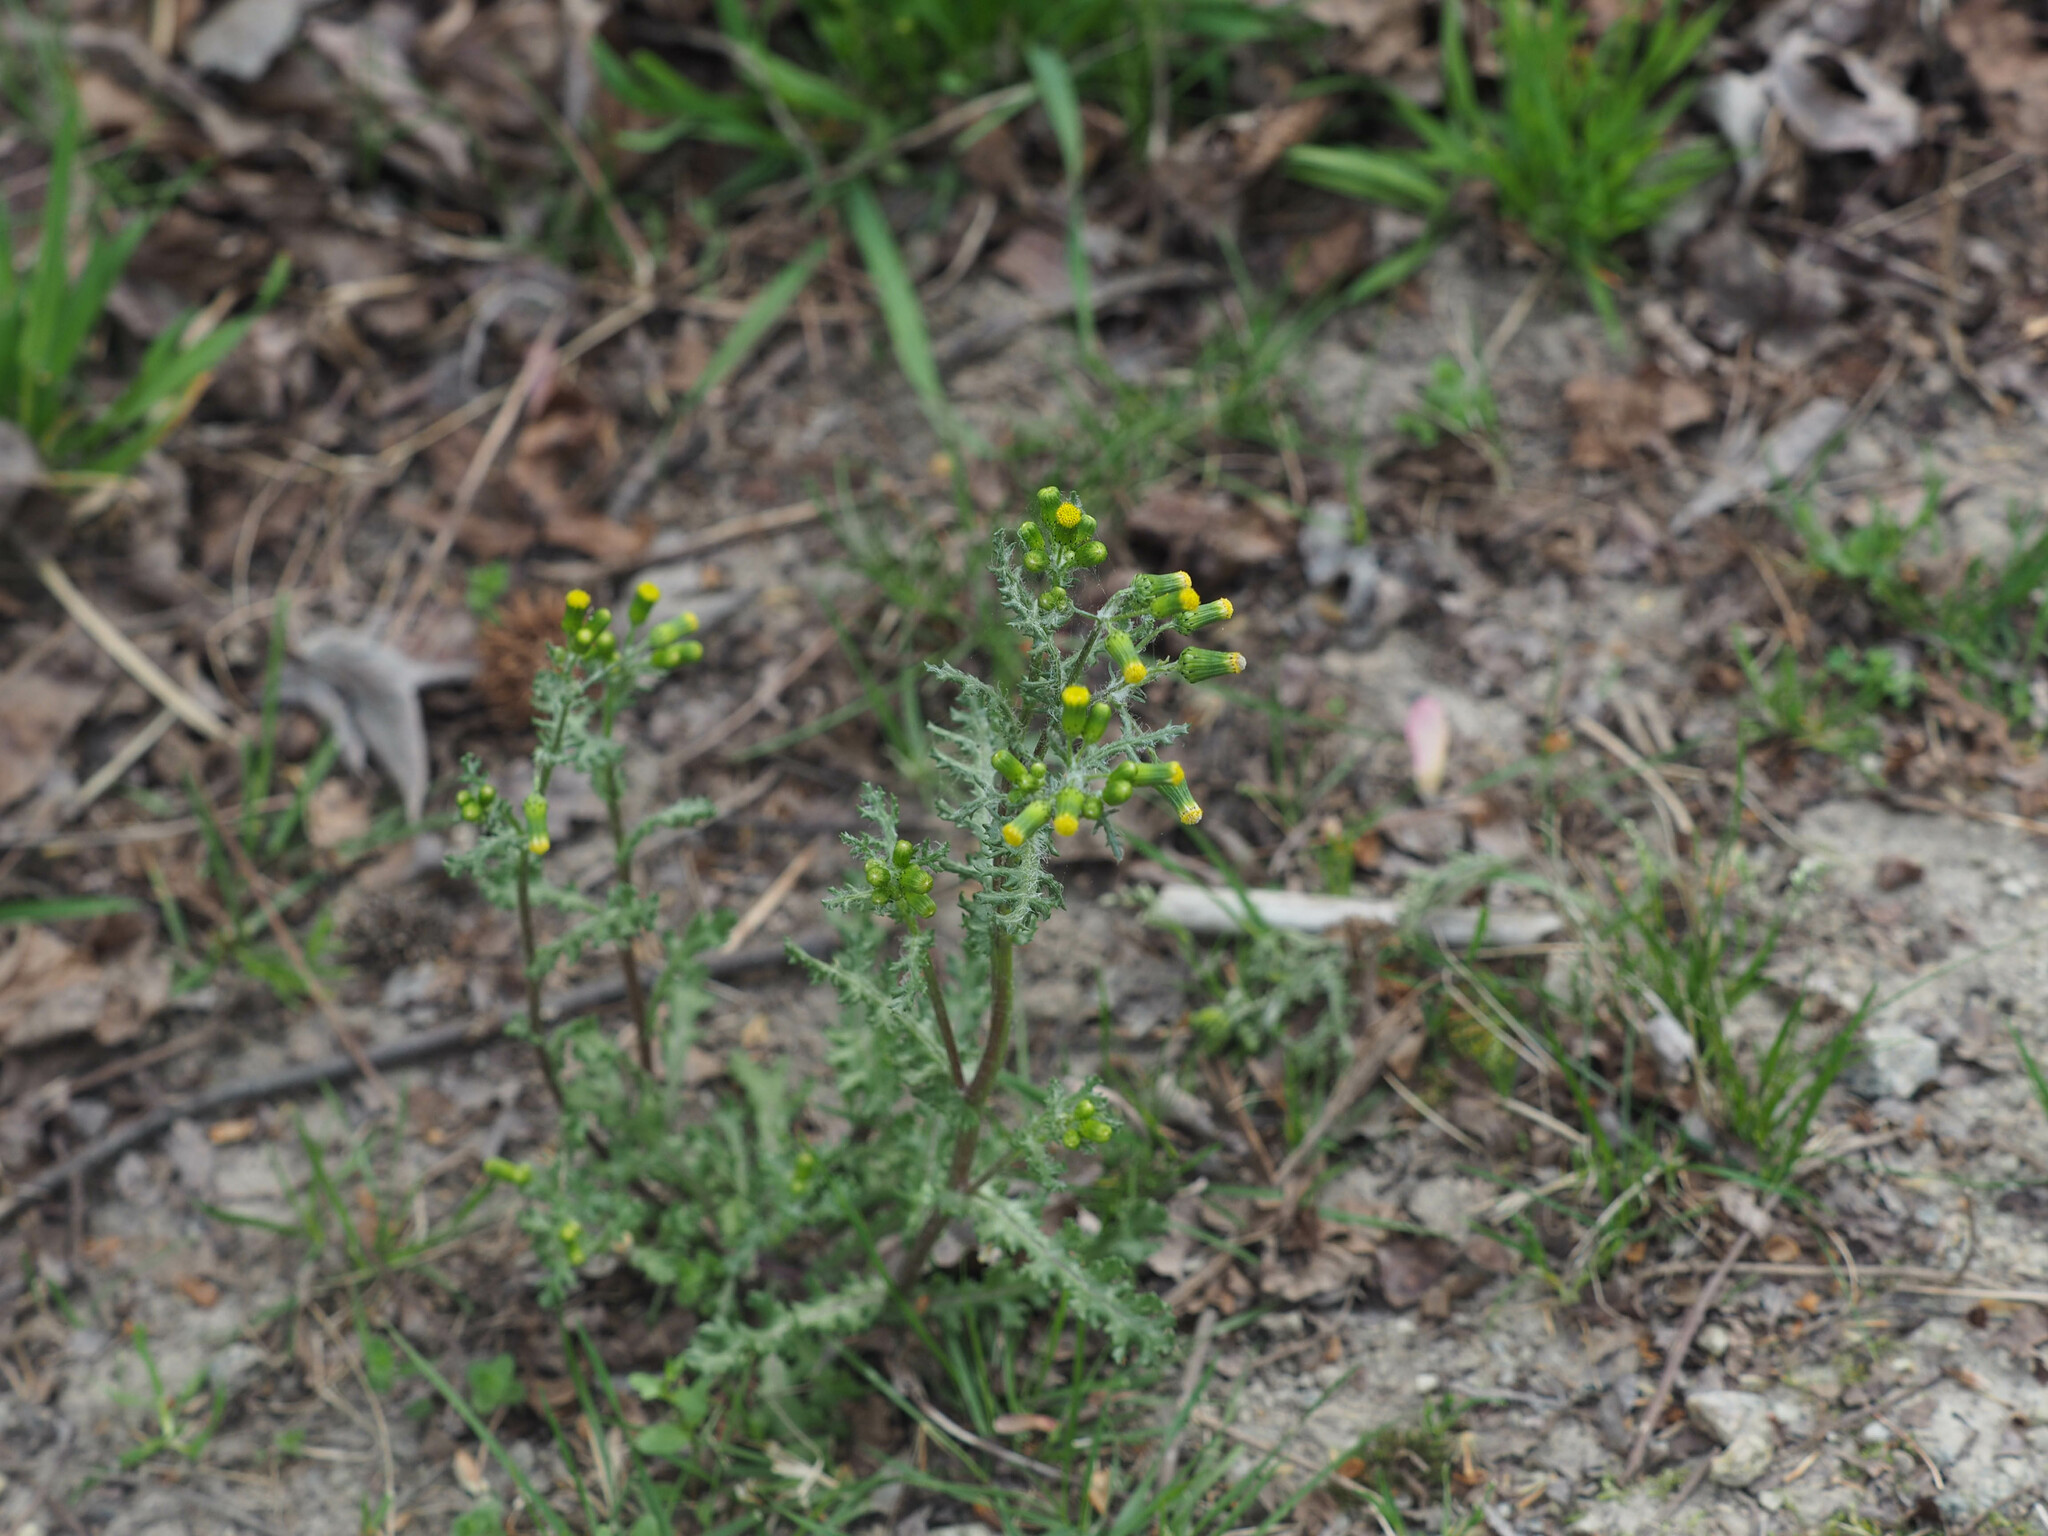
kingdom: Plantae
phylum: Tracheophyta
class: Magnoliopsida
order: Asterales
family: Asteraceae
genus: Senecio
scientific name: Senecio vulgaris
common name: Old-man-in-the-spring
